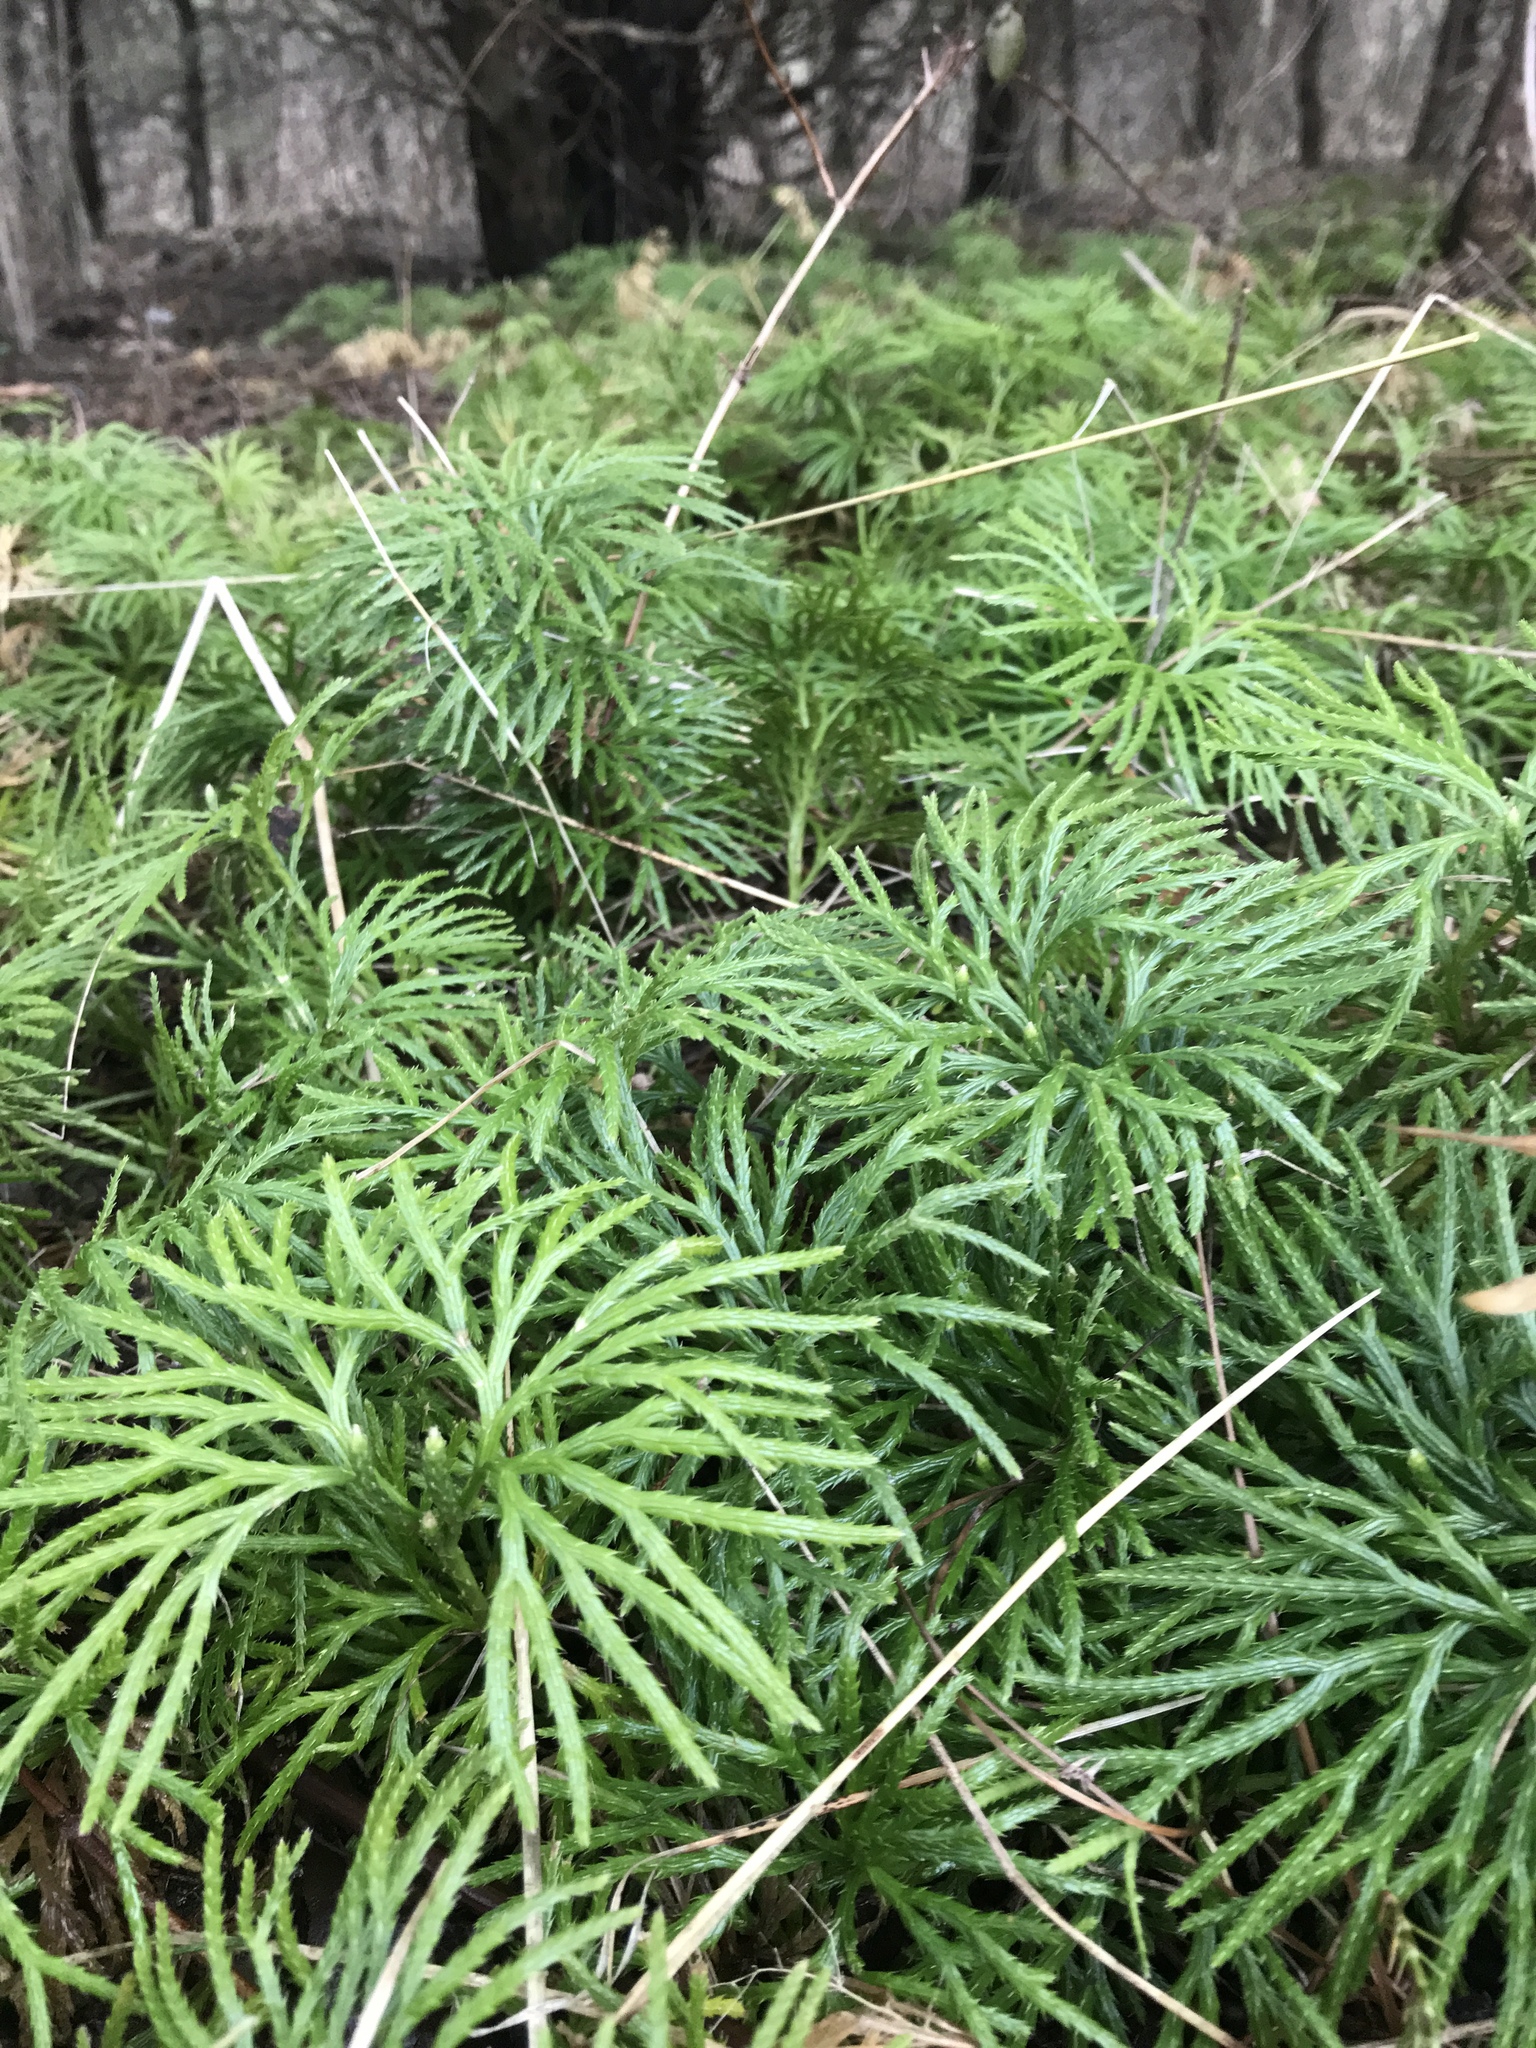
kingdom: Plantae
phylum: Tracheophyta
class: Lycopodiopsida
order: Lycopodiales
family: Lycopodiaceae
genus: Diphasiastrum
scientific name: Diphasiastrum digitatum
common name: Southern running-pine
